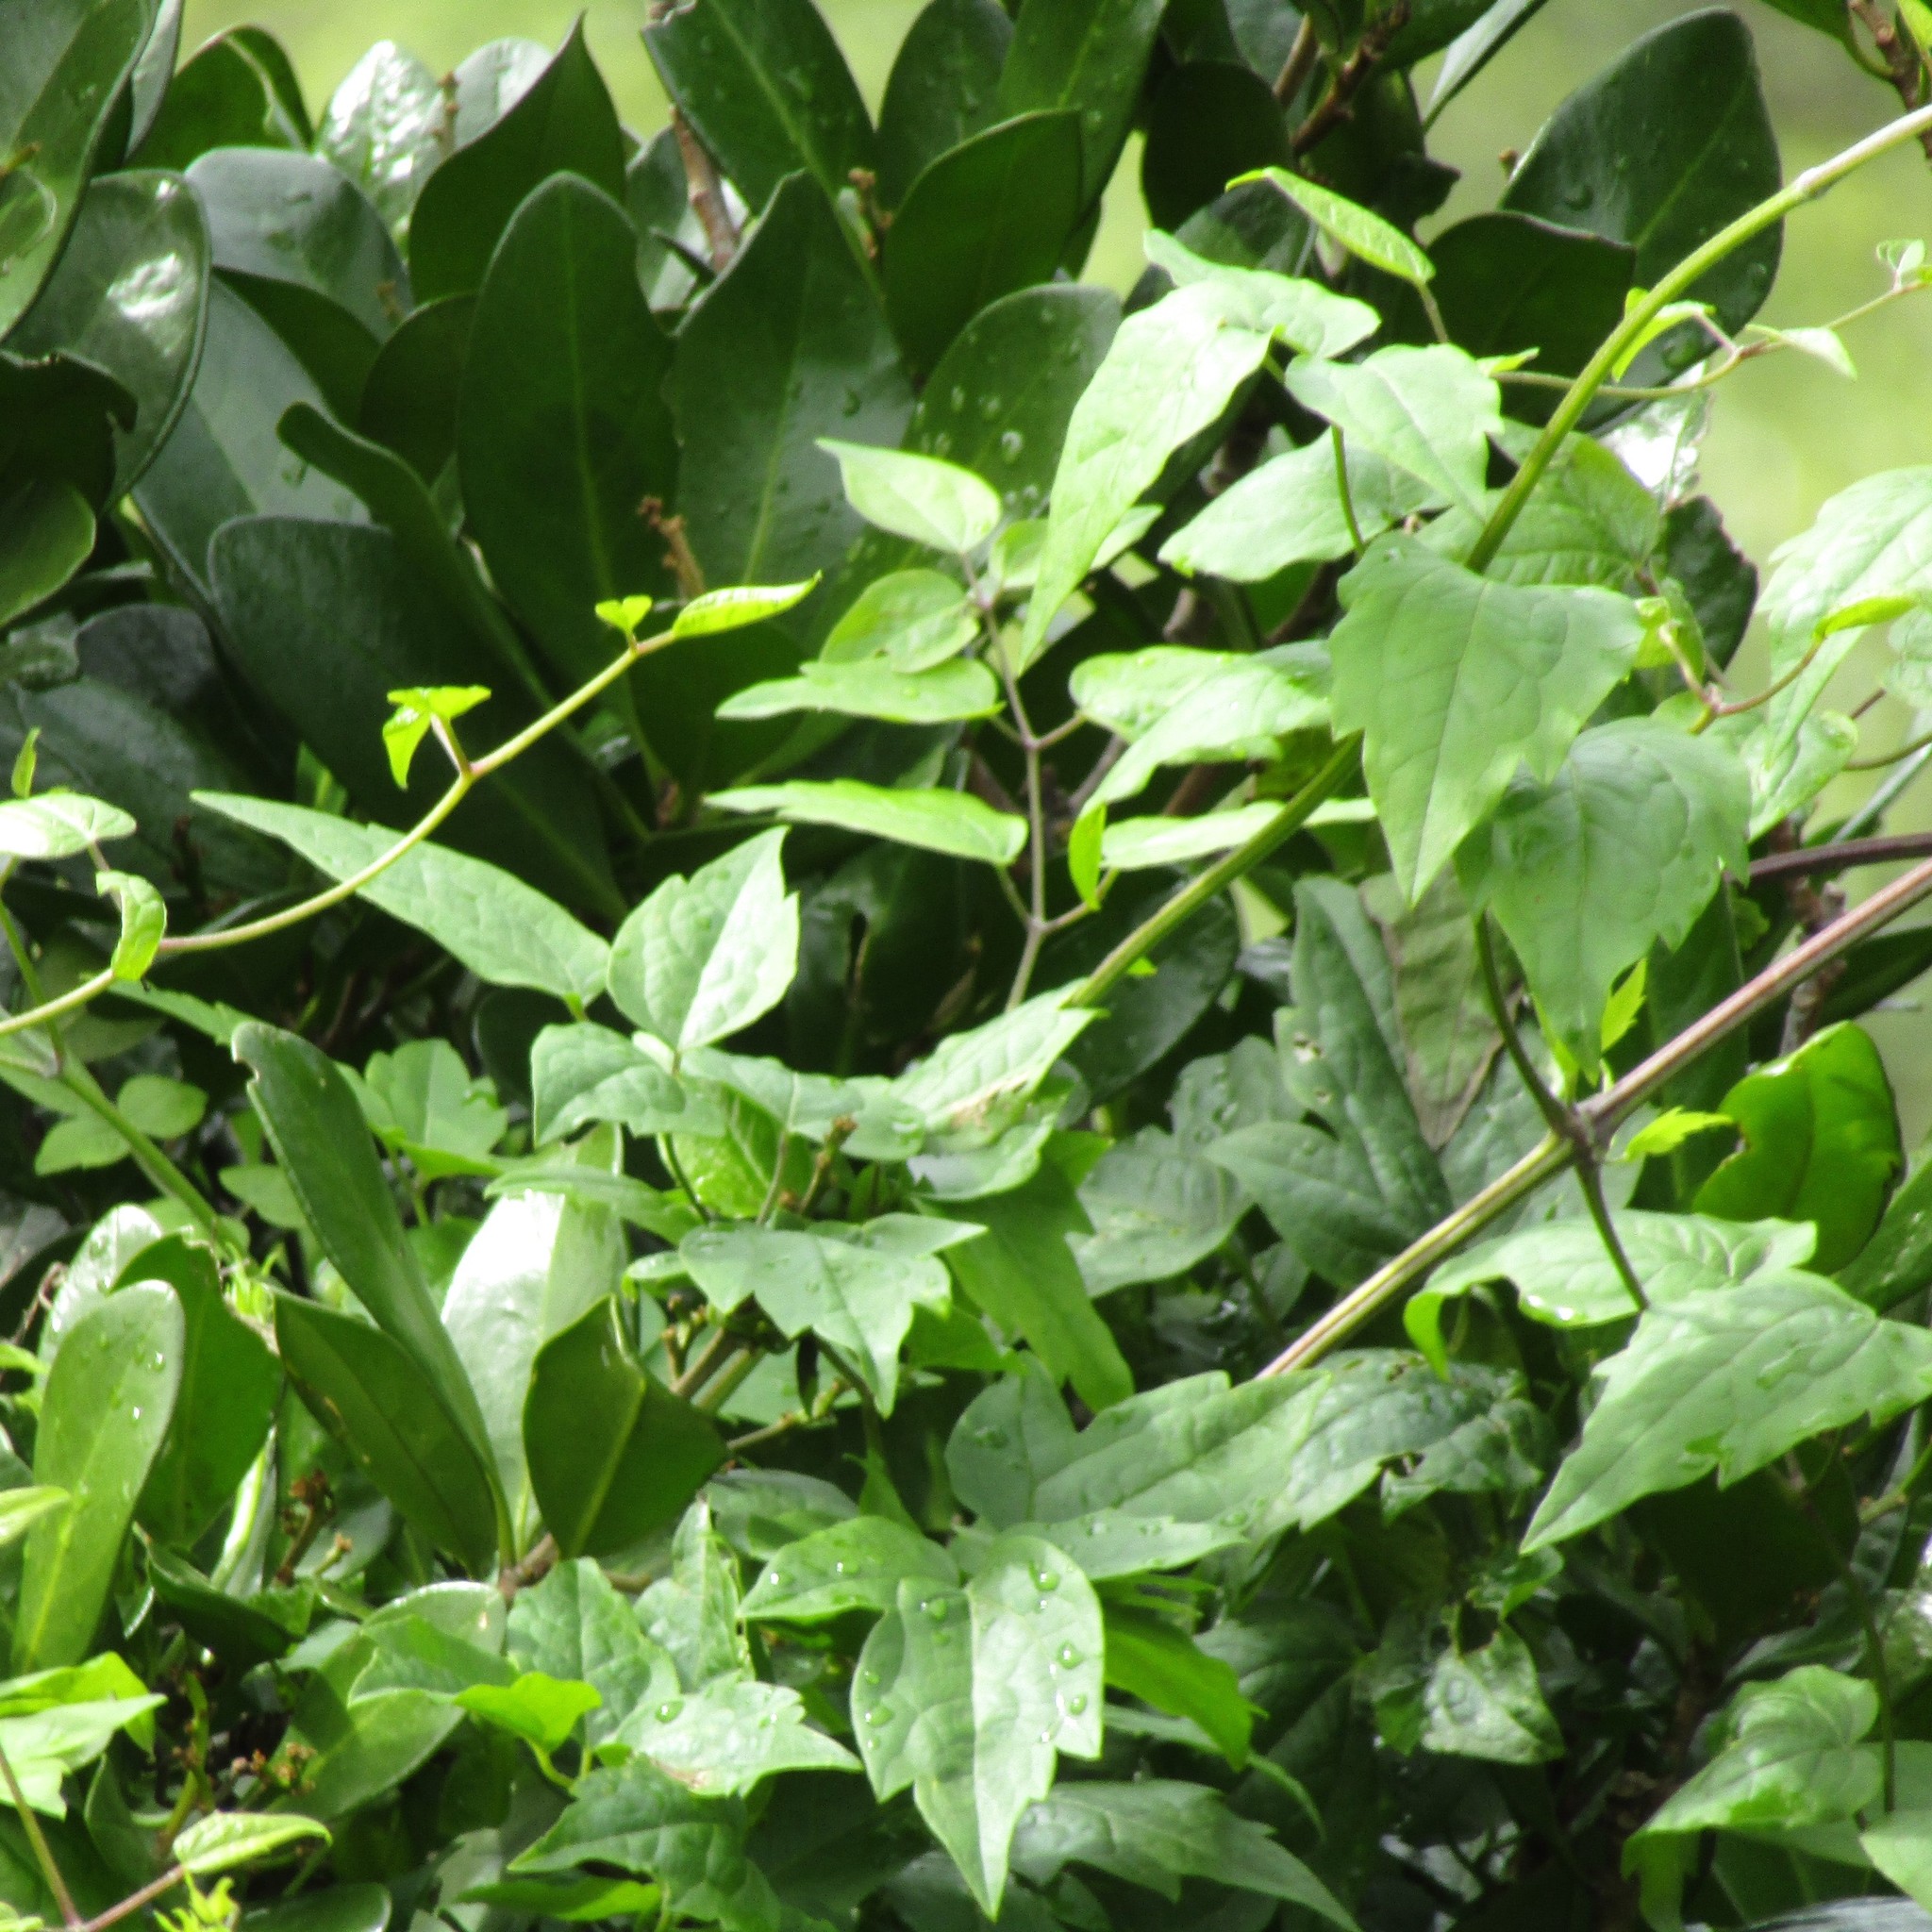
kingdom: Plantae
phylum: Tracheophyta
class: Magnoliopsida
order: Ranunculales
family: Ranunculaceae
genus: Clematis
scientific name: Clematis vitalba
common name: Evergreen clematis
